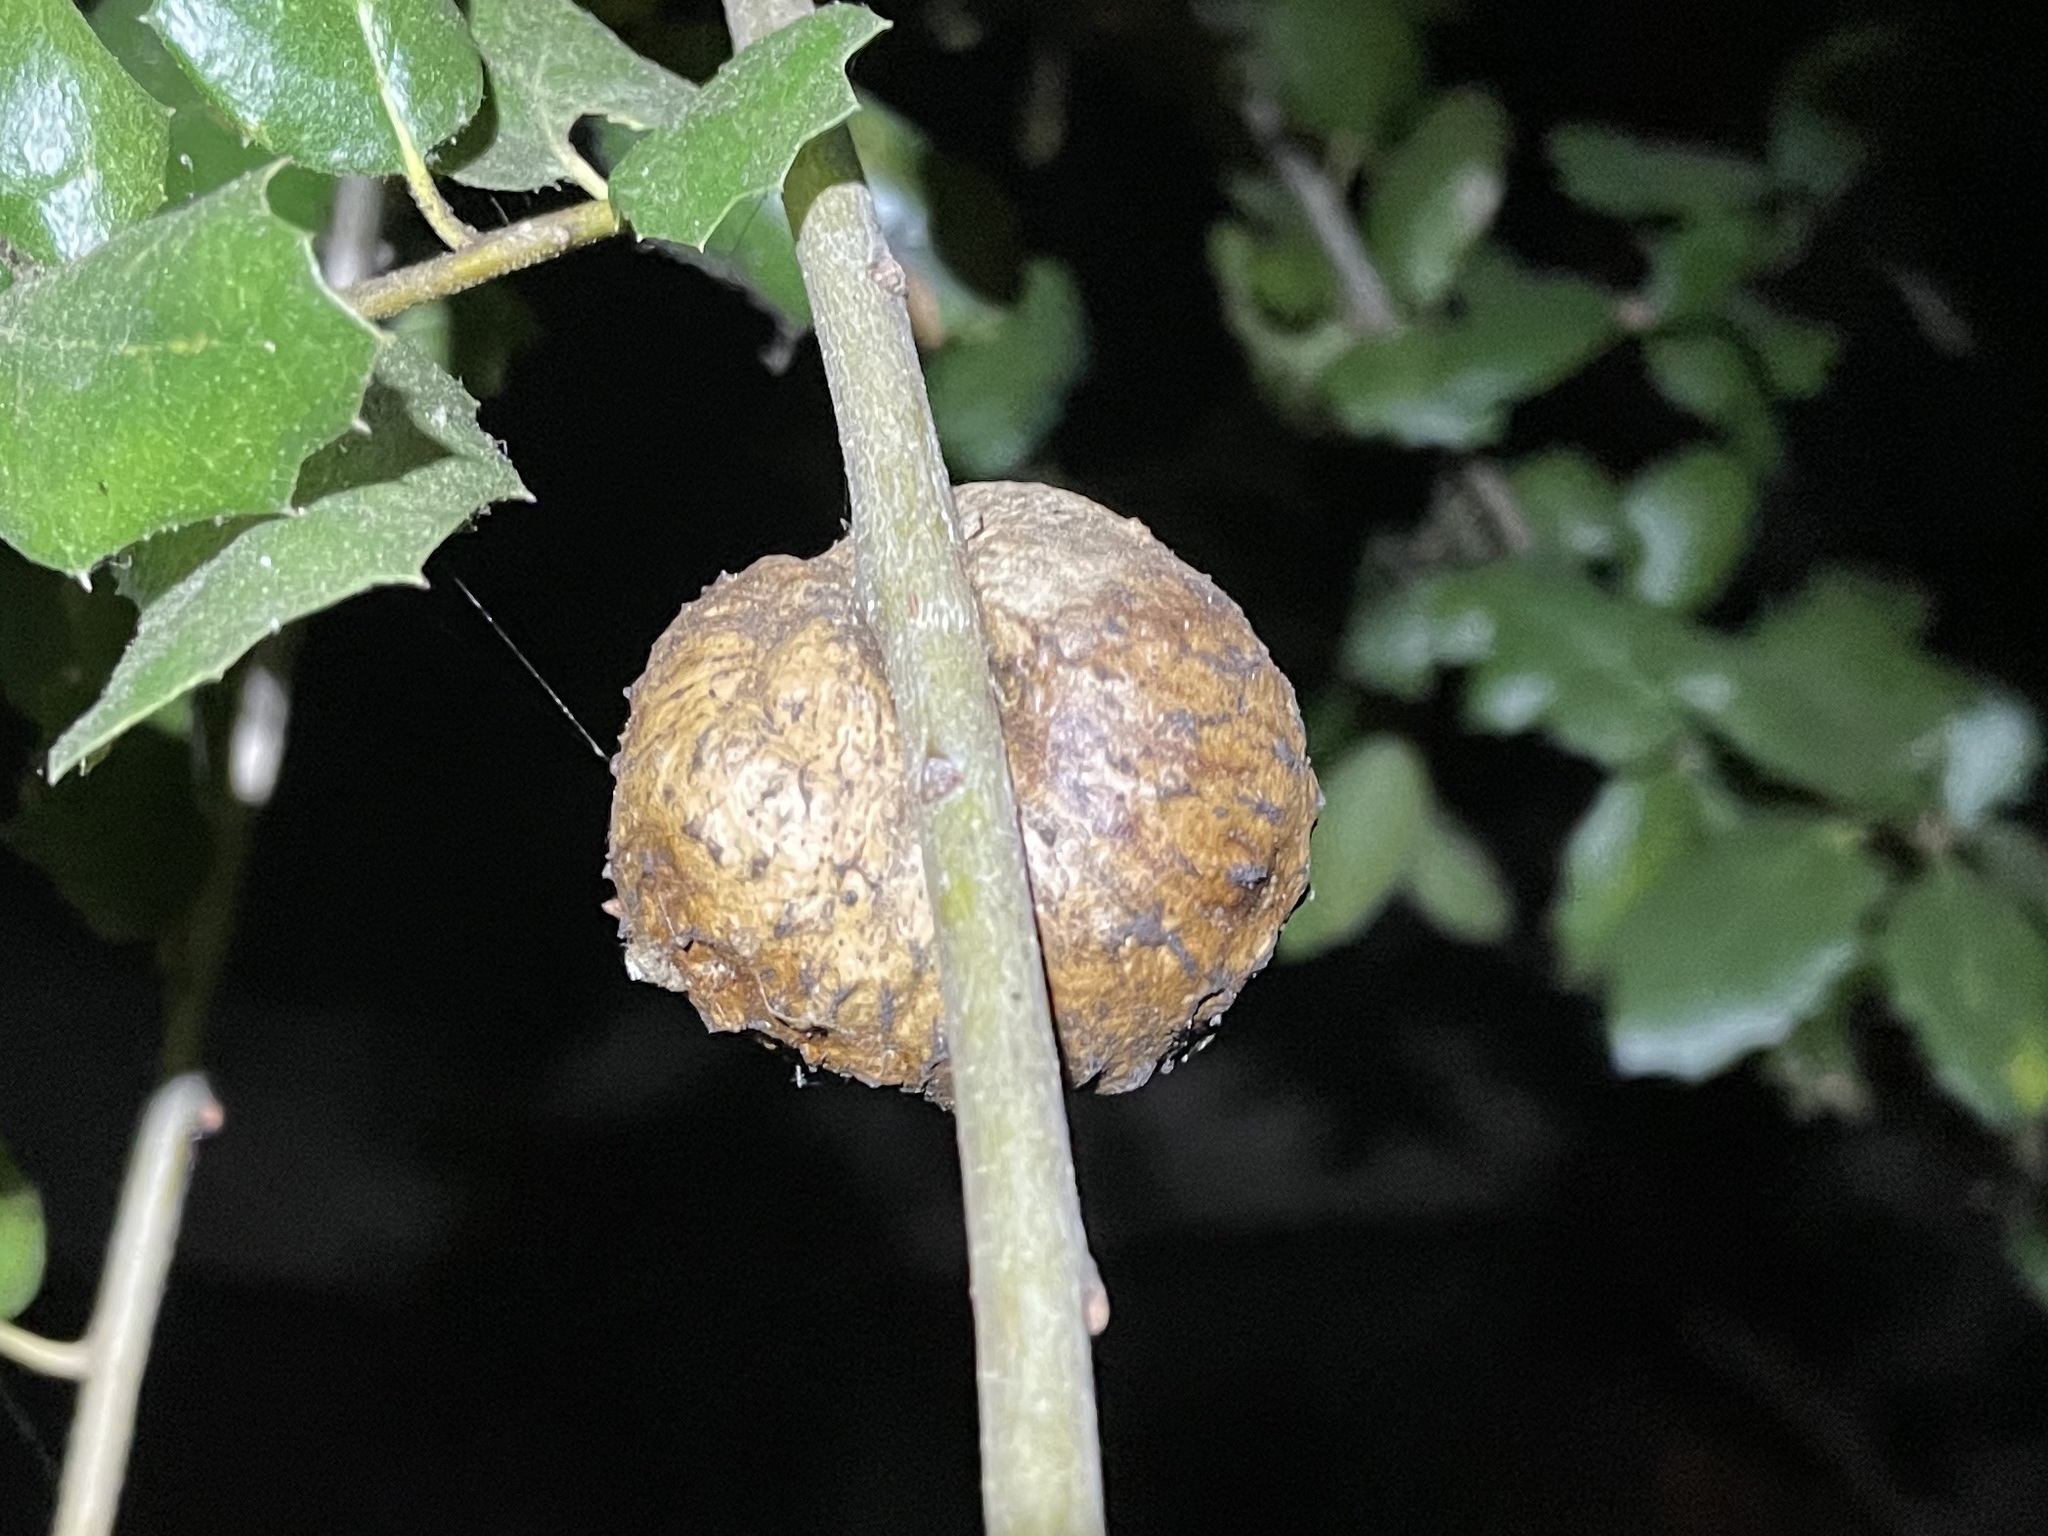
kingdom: Animalia
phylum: Arthropoda
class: Insecta
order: Hymenoptera
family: Cynipidae
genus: Amphibolips
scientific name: Amphibolips quercuspomiformis
